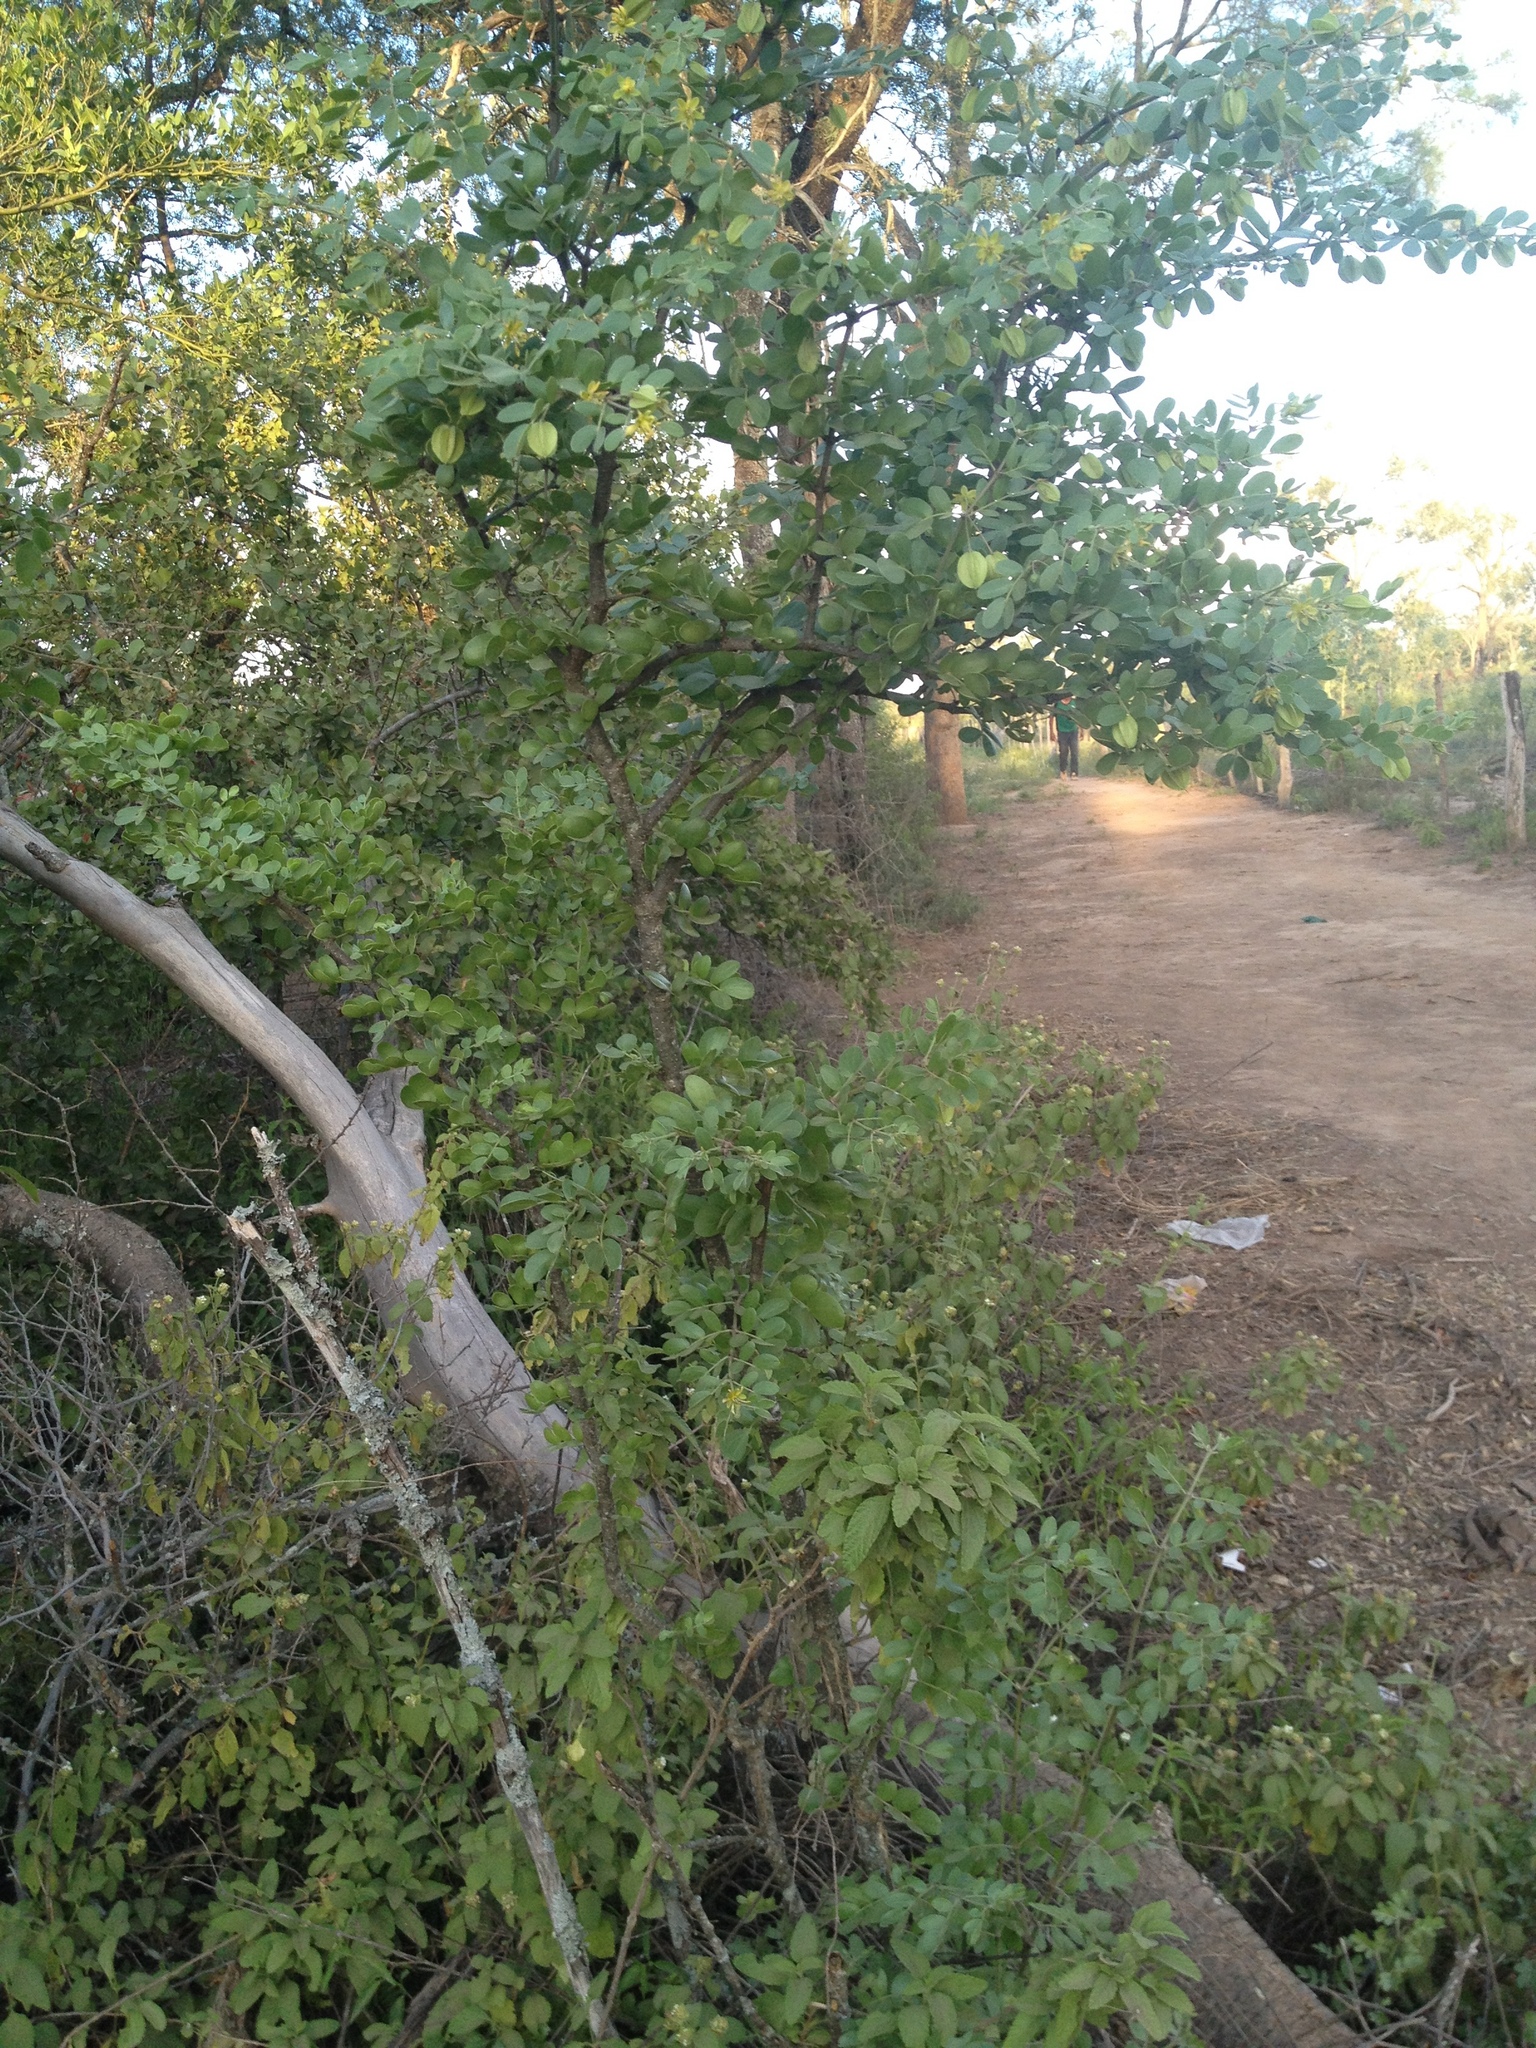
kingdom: Plantae
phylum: Tracheophyta
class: Magnoliopsida
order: Zygophyllales
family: Zygophyllaceae
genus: Bulnesia
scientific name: Bulnesia foliosa
